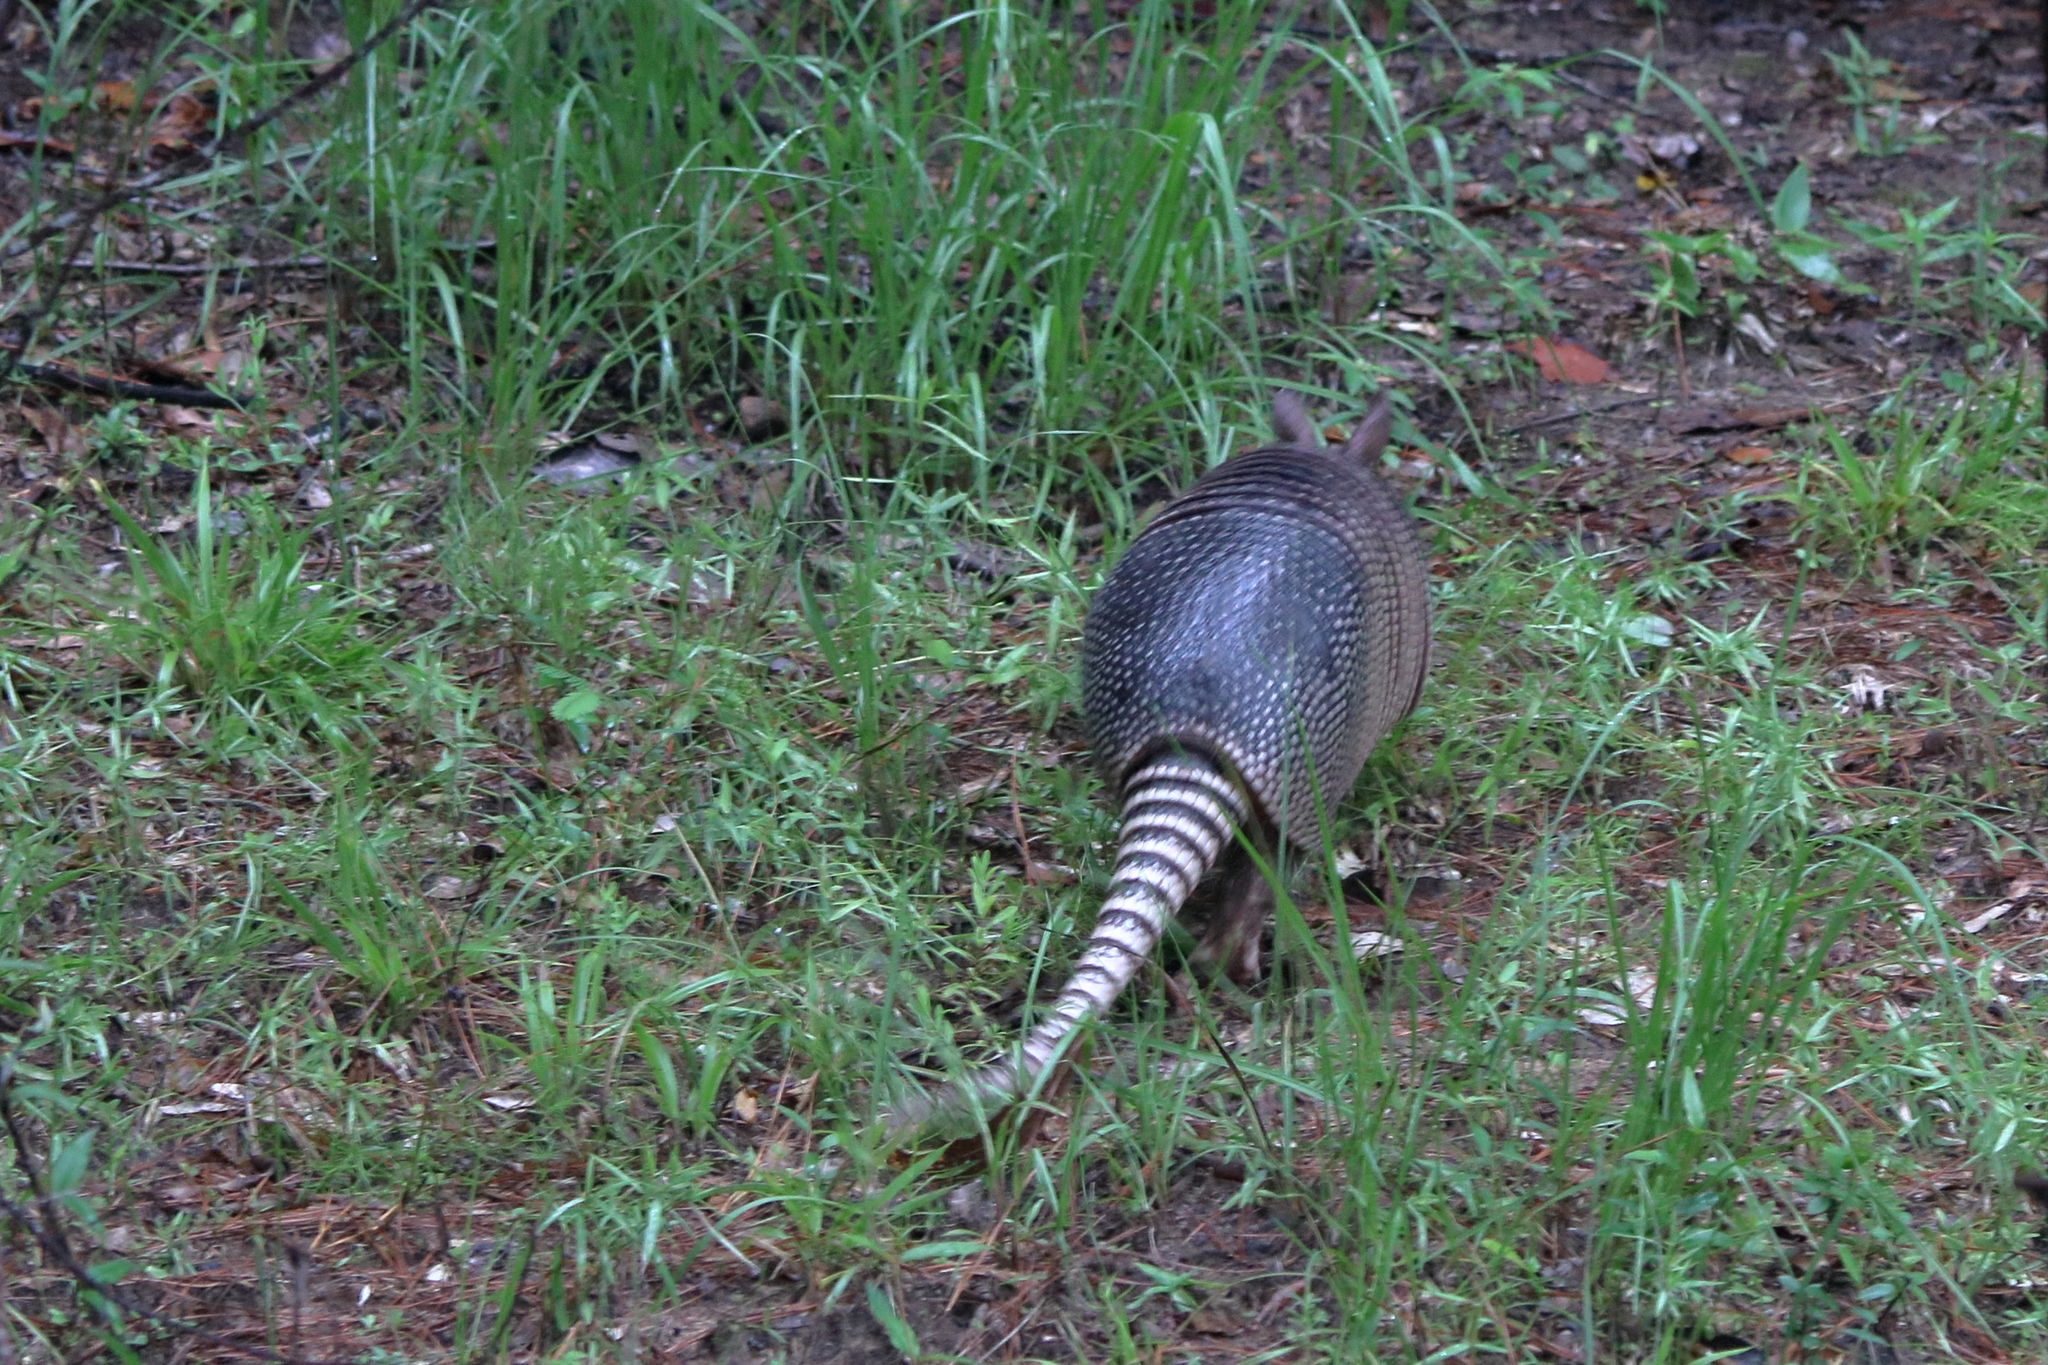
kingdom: Animalia
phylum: Chordata
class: Mammalia
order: Cingulata
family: Dasypodidae
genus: Dasypus
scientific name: Dasypus novemcinctus
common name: Nine-banded armadillo
